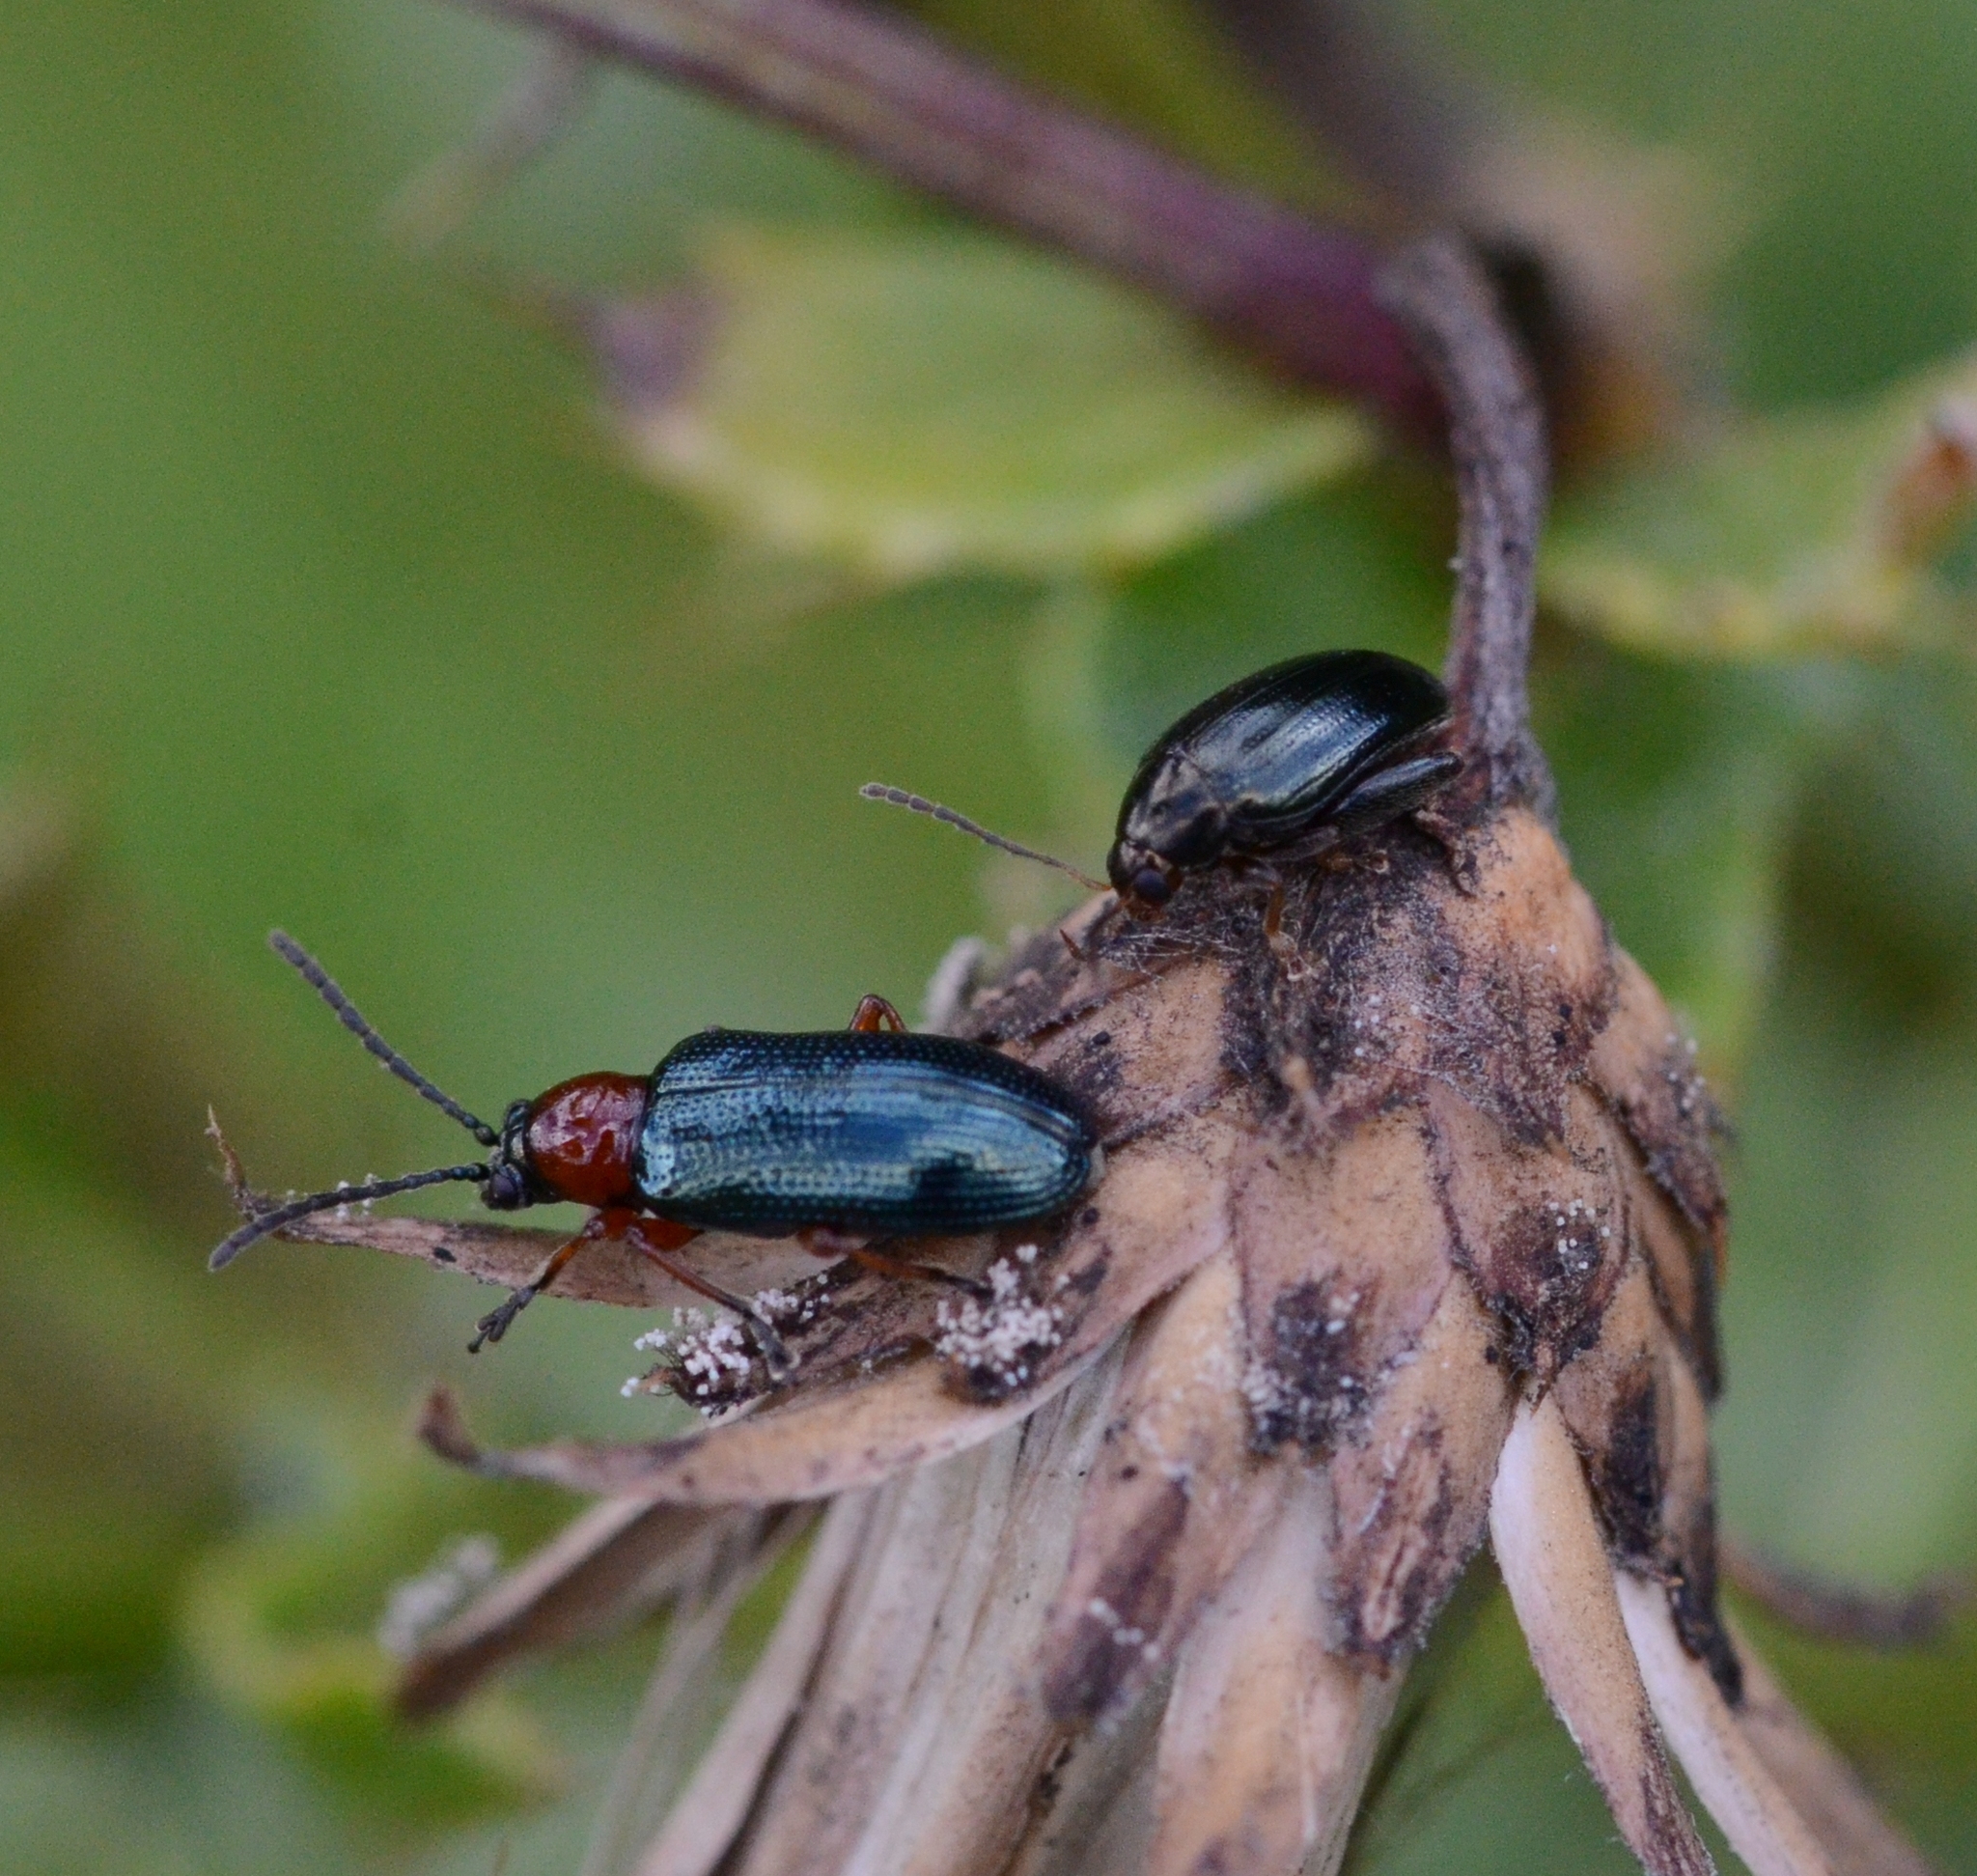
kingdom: Animalia
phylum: Arthropoda
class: Insecta
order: Coleoptera
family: Chrysomelidae
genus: Psylliodes
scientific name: Psylliodes chrysocephalus
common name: Cabbage-stem flea beetle
